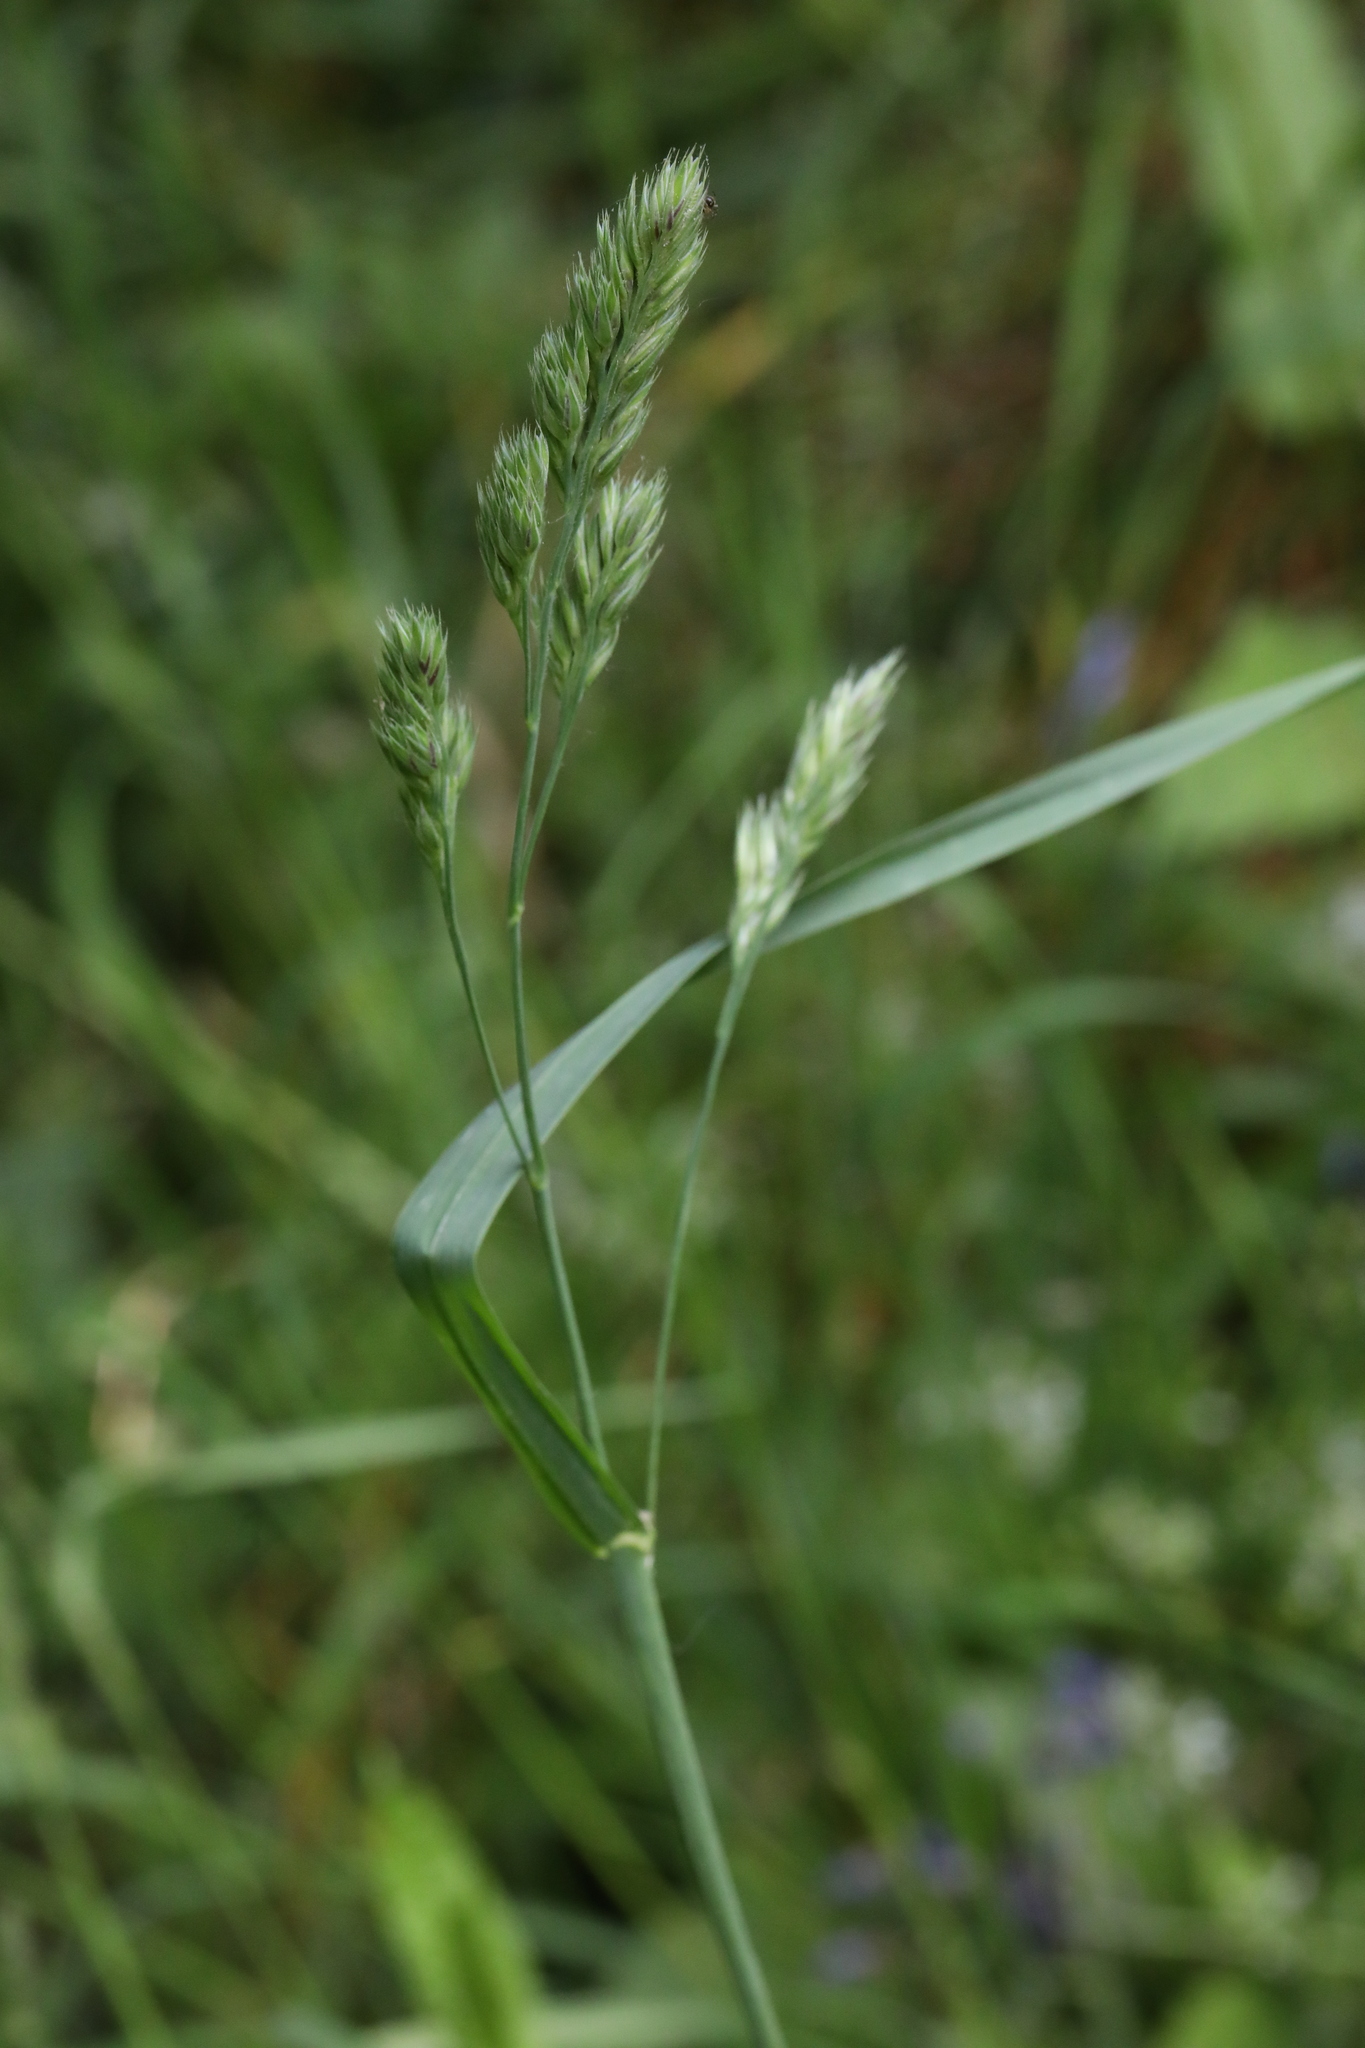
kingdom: Plantae
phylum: Tracheophyta
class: Liliopsida
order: Poales
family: Poaceae
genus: Dactylis
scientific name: Dactylis glomerata
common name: Orchardgrass
